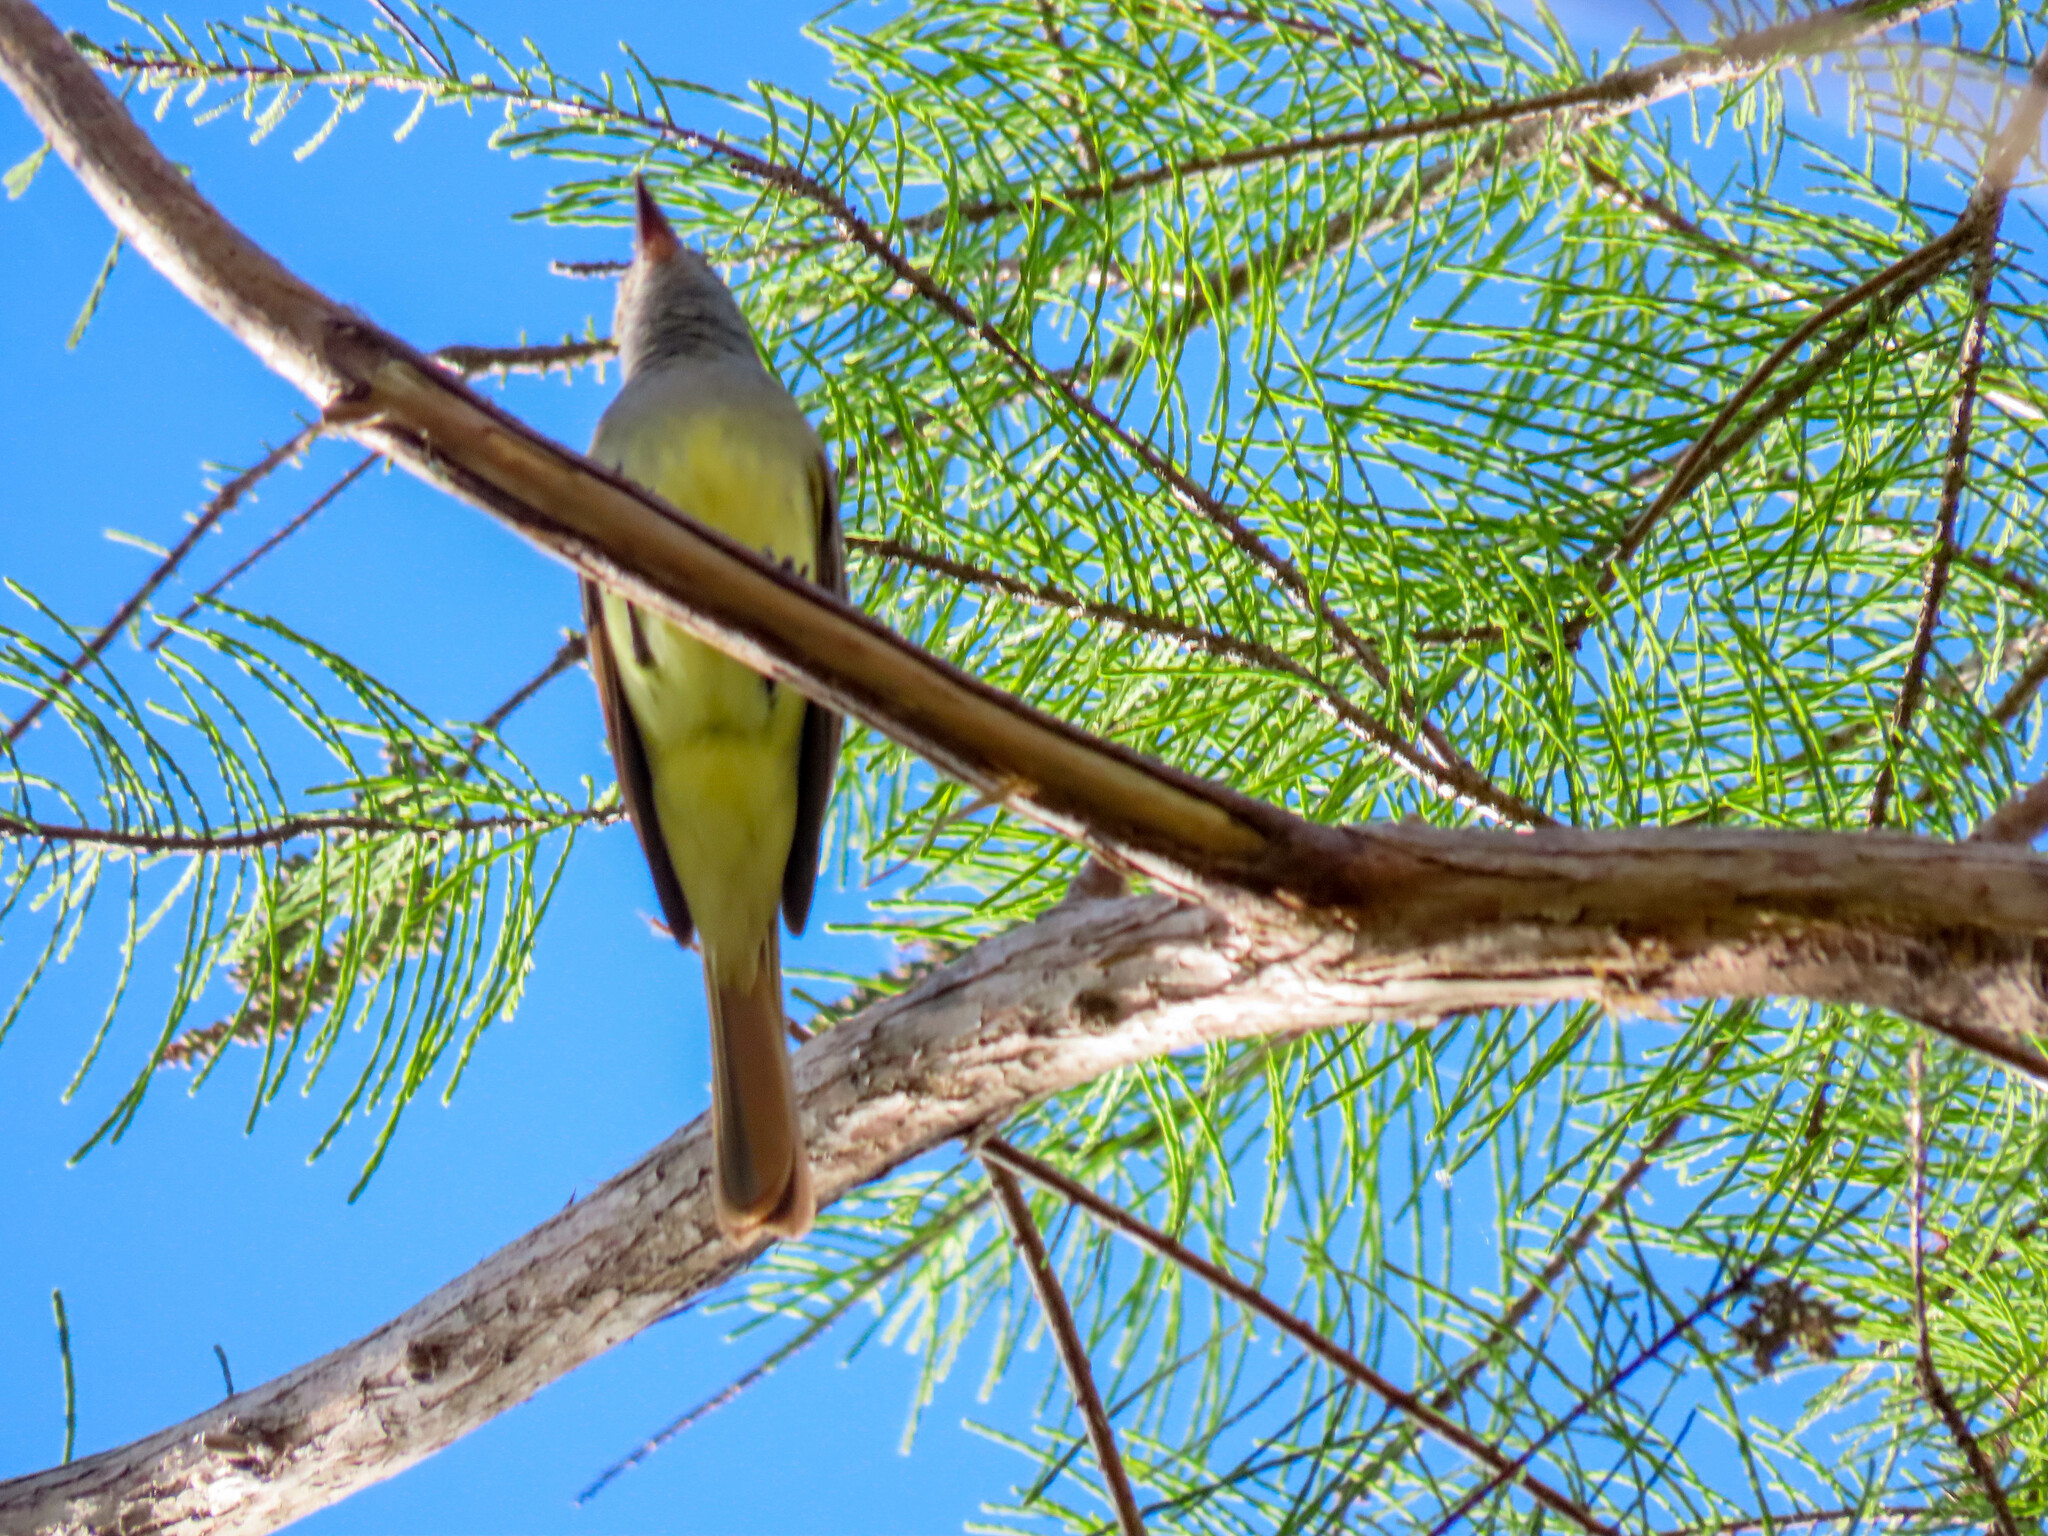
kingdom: Animalia
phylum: Chordata
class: Aves
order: Passeriformes
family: Tyrannidae
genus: Myiarchus
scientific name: Myiarchus crinitus
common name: Great crested flycatcher
